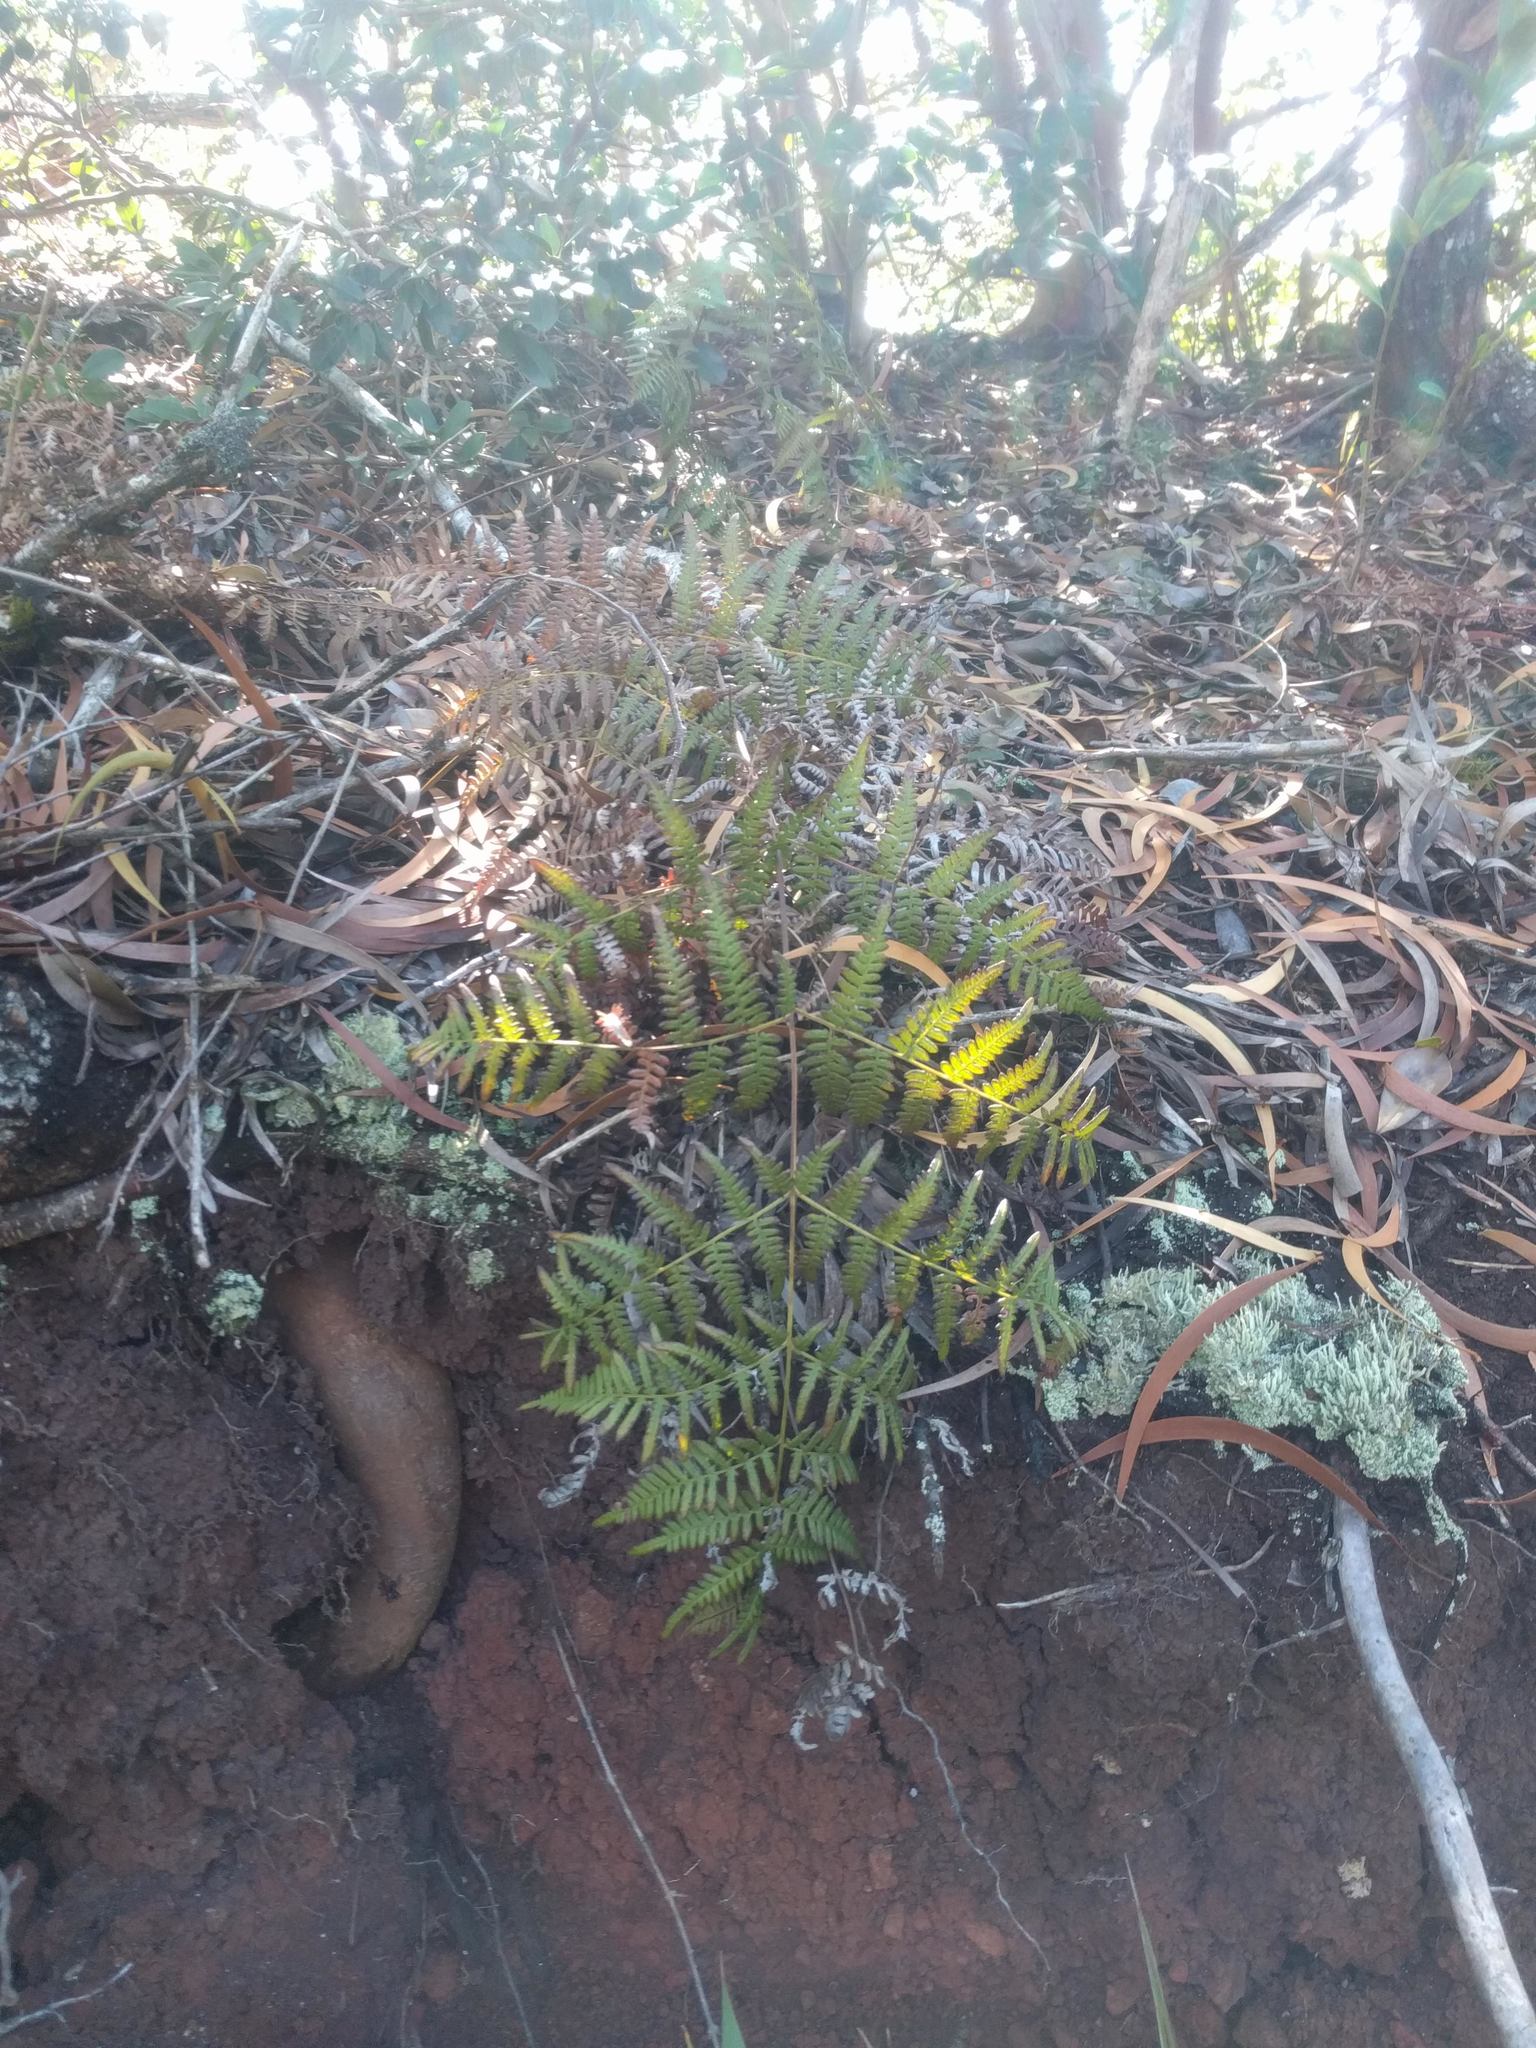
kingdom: Plantae
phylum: Tracheophyta
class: Polypodiopsida
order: Polypodiales
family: Dennstaedtiaceae
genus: Pteridium
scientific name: Pteridium aquilinum
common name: Bracken
